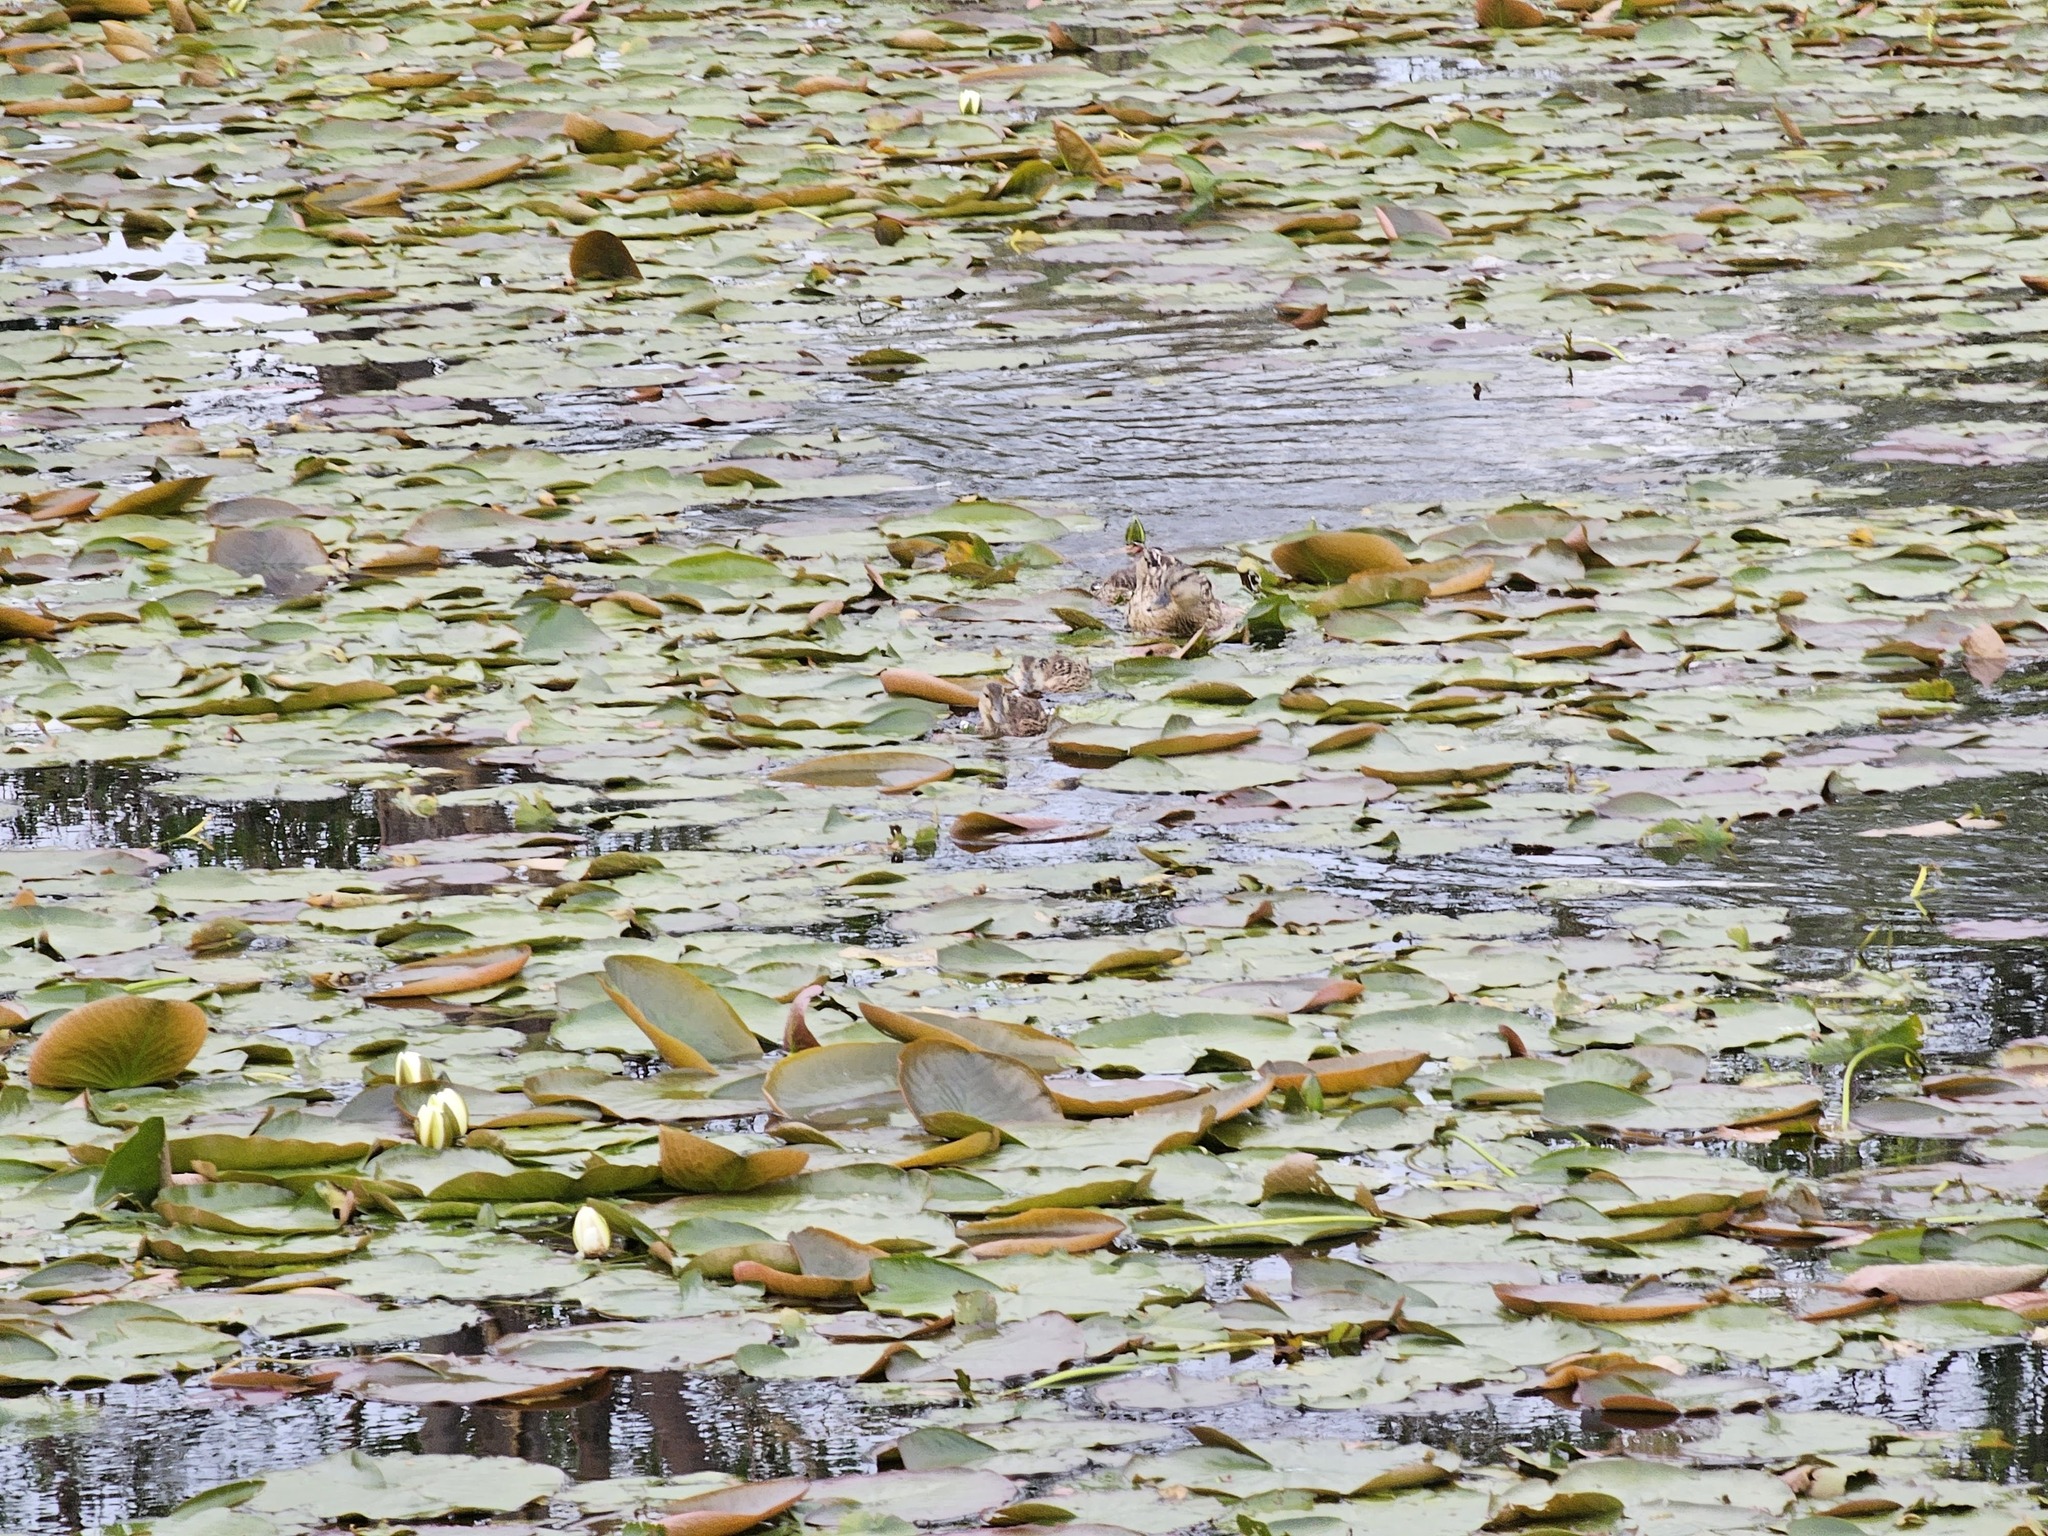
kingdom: Animalia
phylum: Chordata
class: Aves
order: Anseriformes
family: Anatidae
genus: Anas
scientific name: Anas platyrhynchos
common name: Mallard
